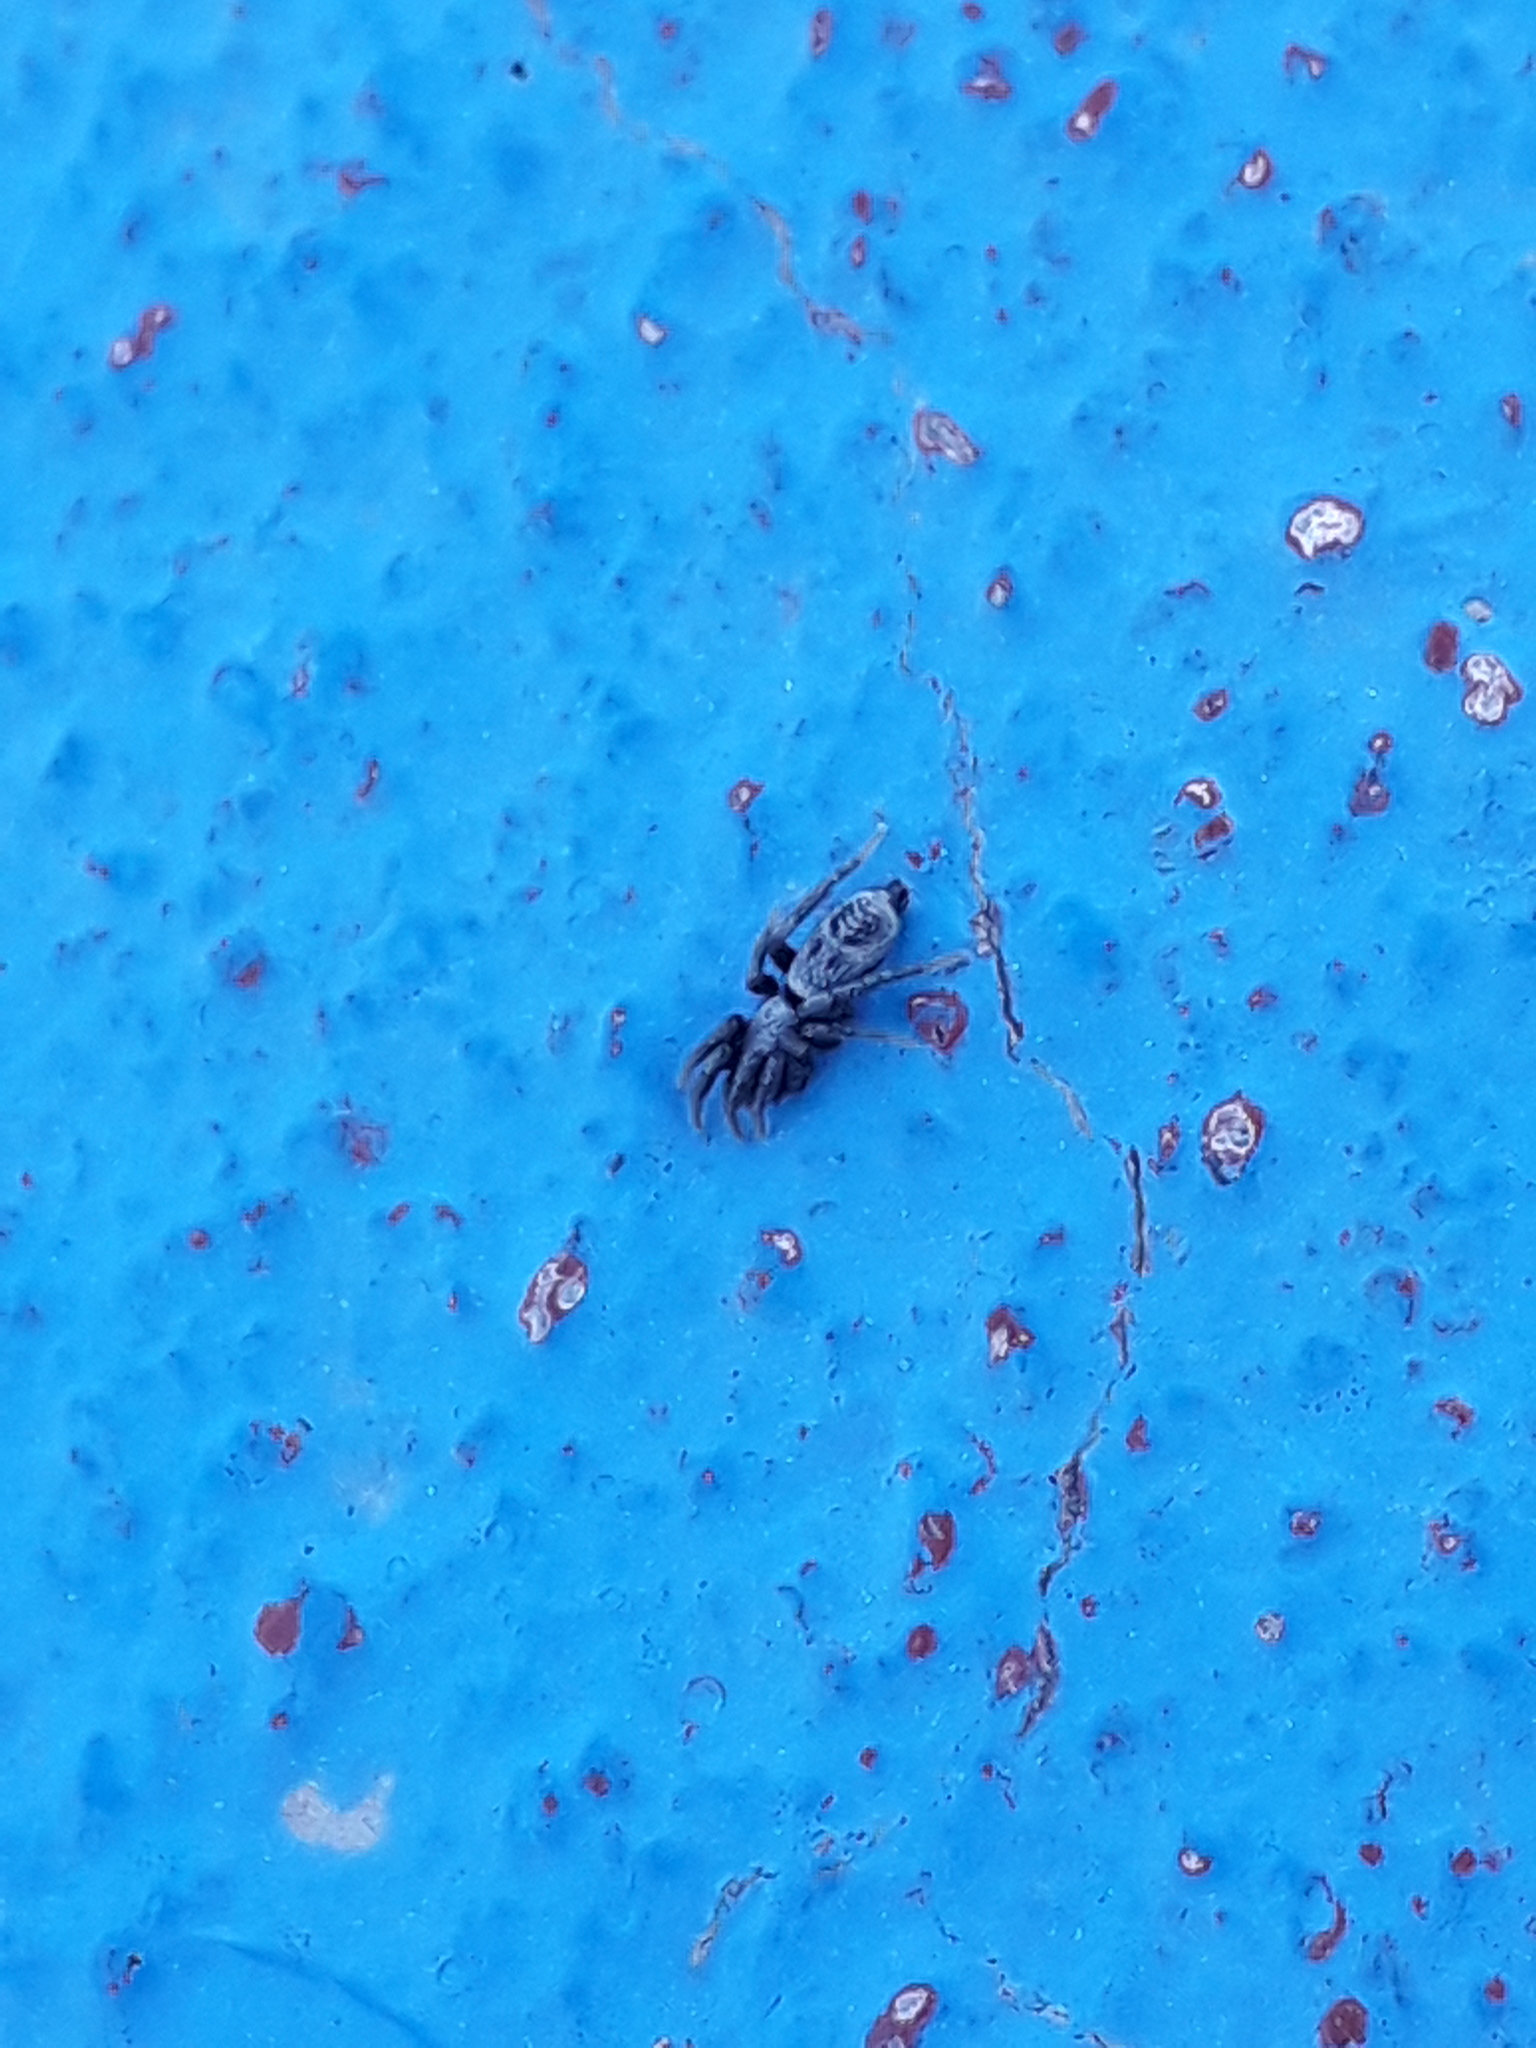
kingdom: Animalia
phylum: Arthropoda
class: Arachnida
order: Araneae
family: Gnaphosidae
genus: Sergiolus
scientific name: Sergiolus stella
